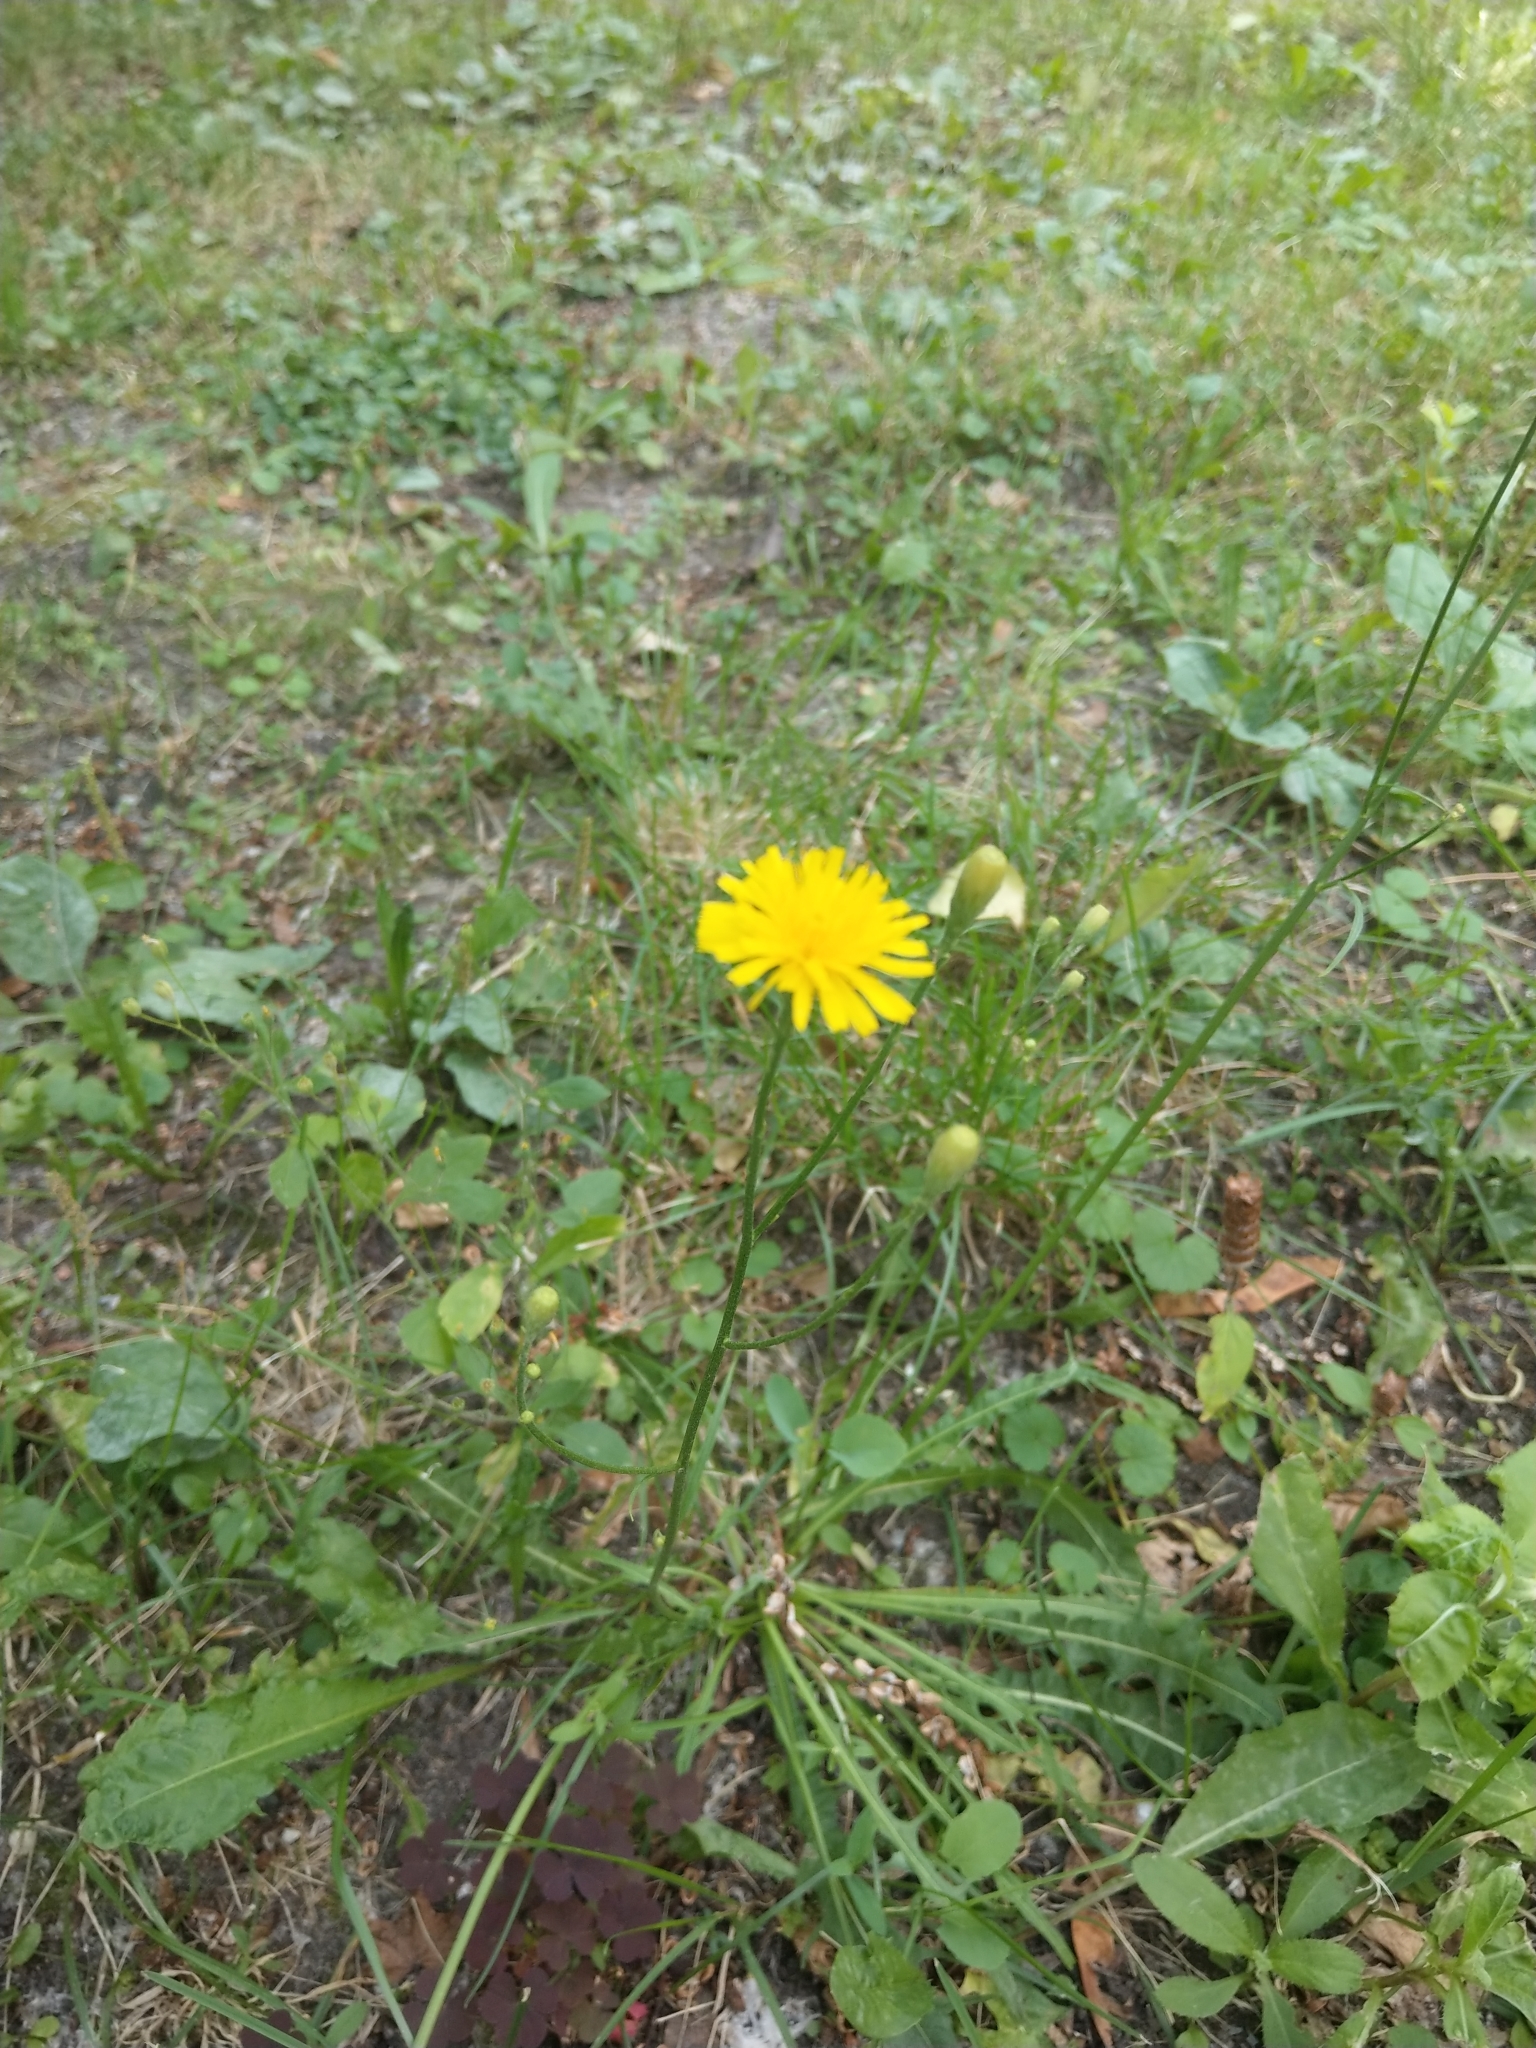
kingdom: Plantae
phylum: Tracheophyta
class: Magnoliopsida
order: Asterales
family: Asteraceae
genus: Scorzoneroides
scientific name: Scorzoneroides autumnalis
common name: Autumn hawkbit
